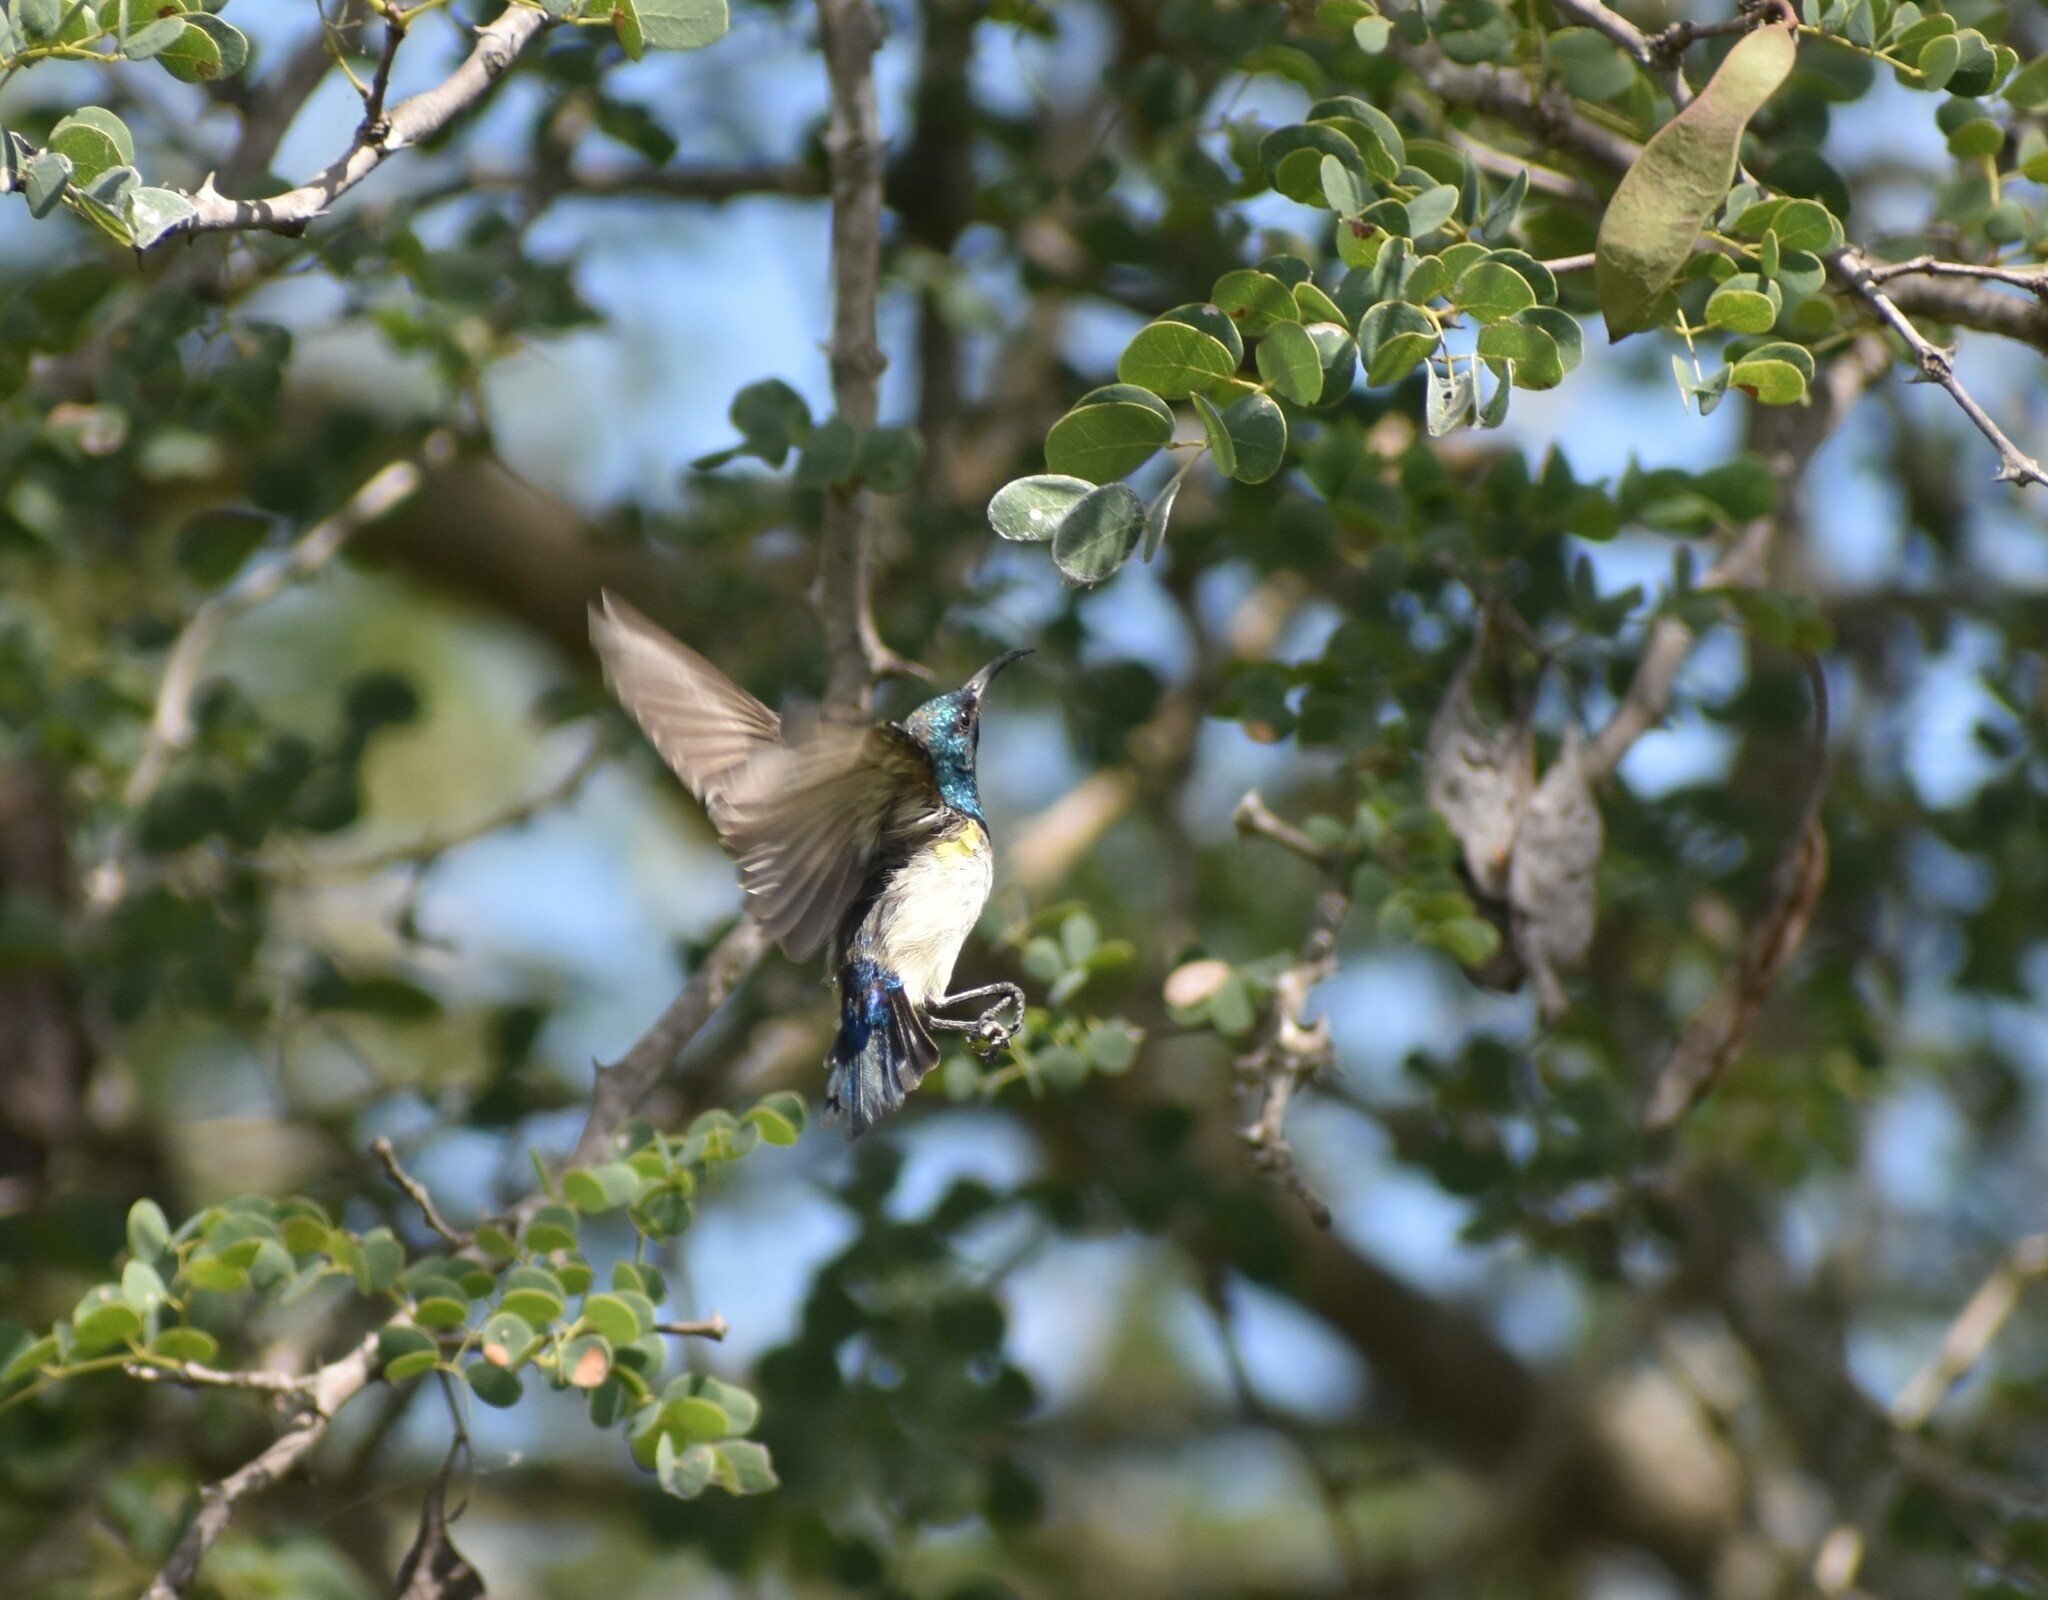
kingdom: Animalia
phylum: Chordata
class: Aves
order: Passeriformes
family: Nectariniidae
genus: Cinnyris
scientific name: Cinnyris talatala
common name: White-bellied sunbird
